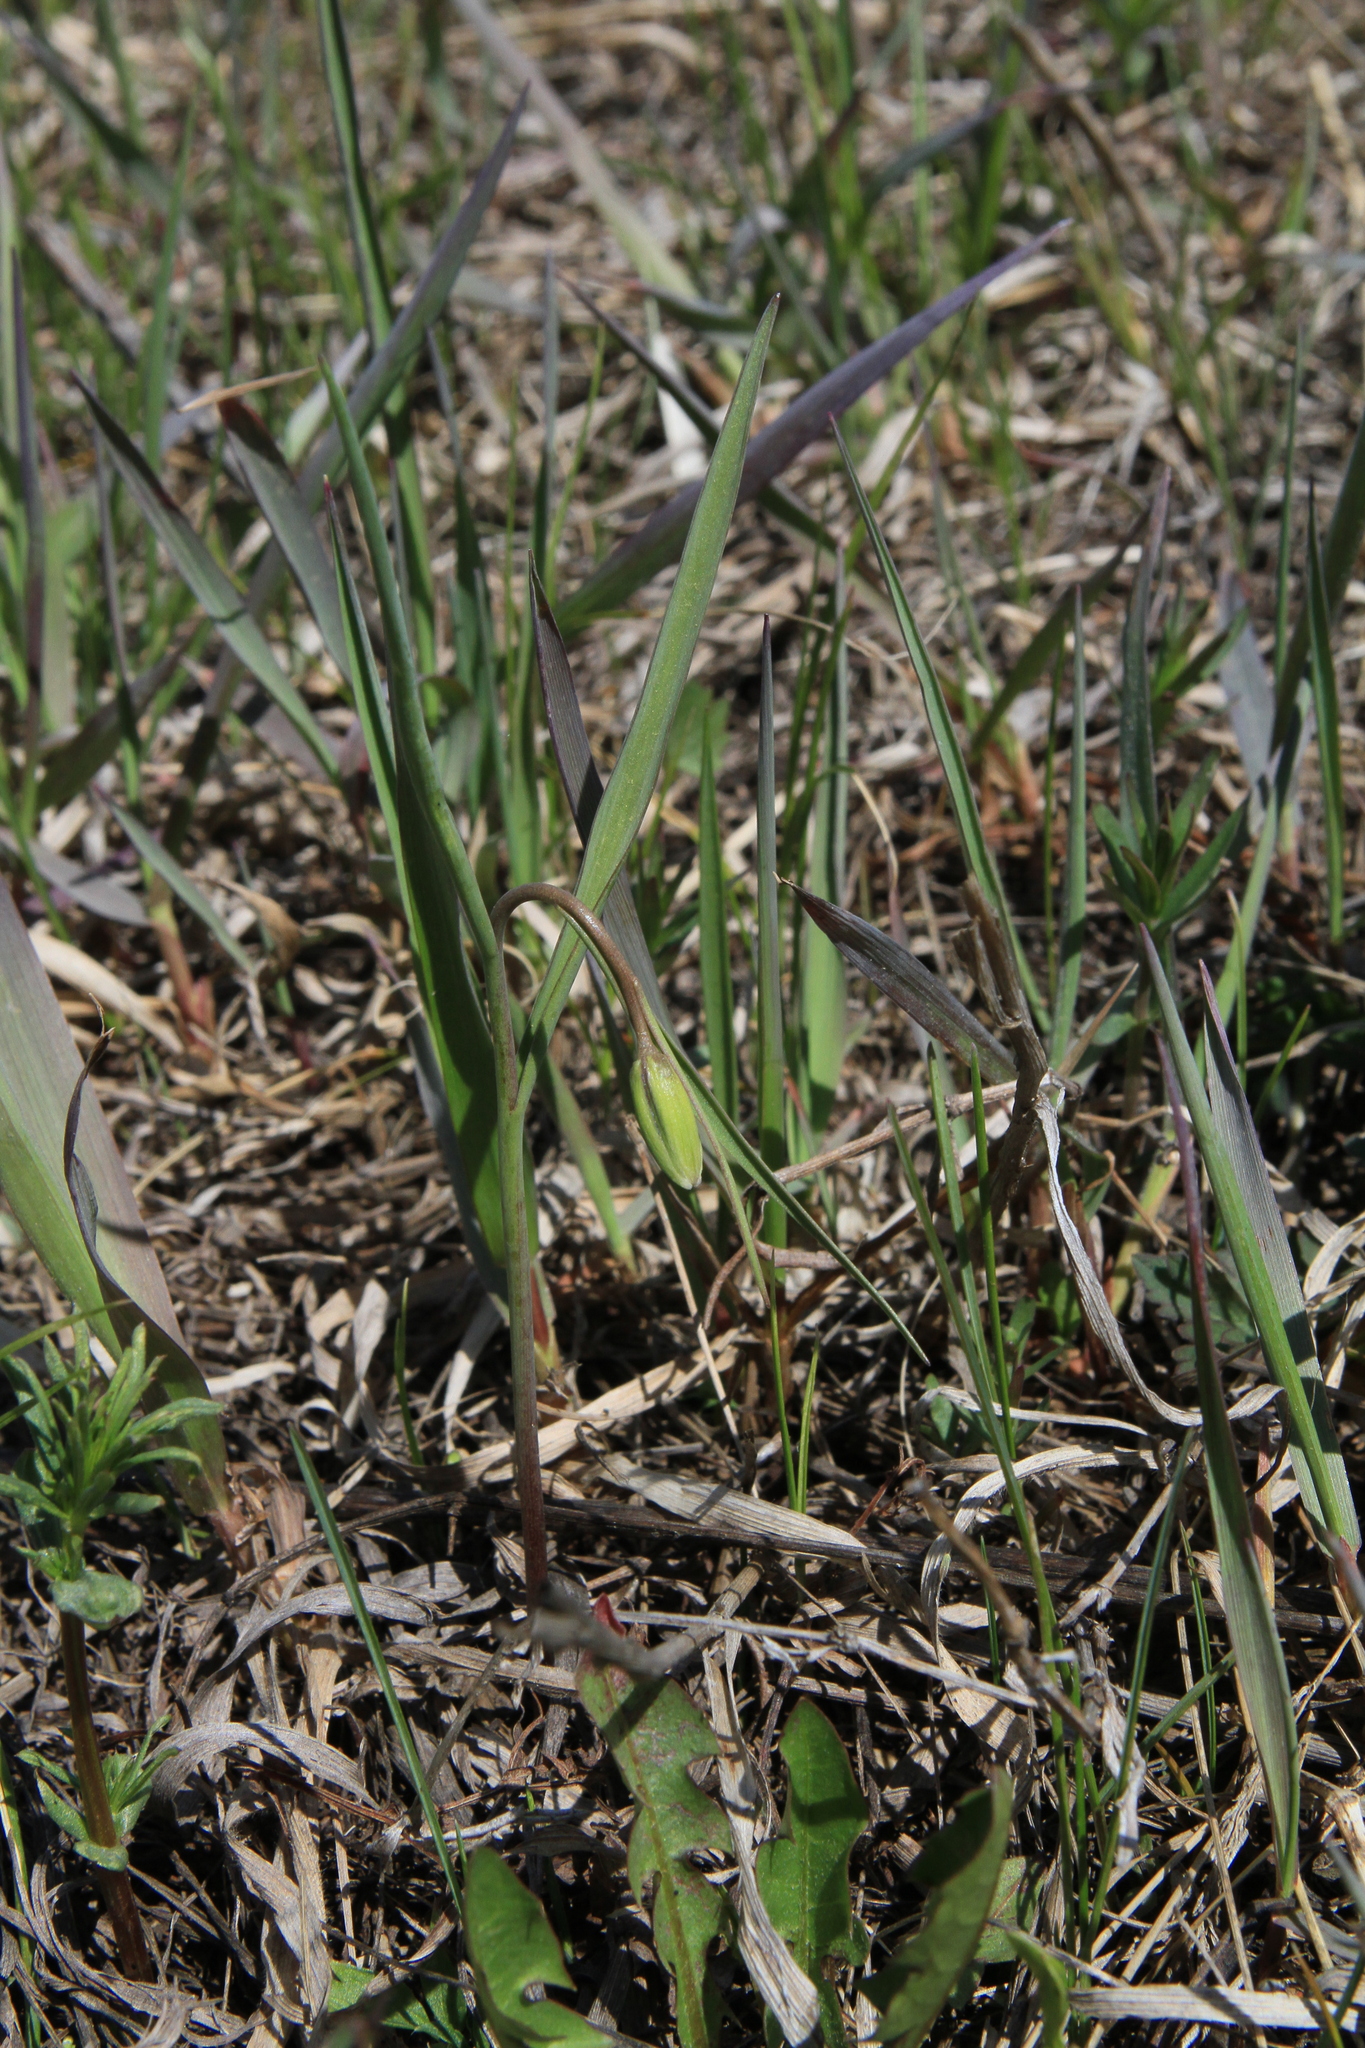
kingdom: Plantae
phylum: Tracheophyta
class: Liliopsida
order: Liliales
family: Liliaceae
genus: Fritillaria
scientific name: Fritillaria meleagroides
